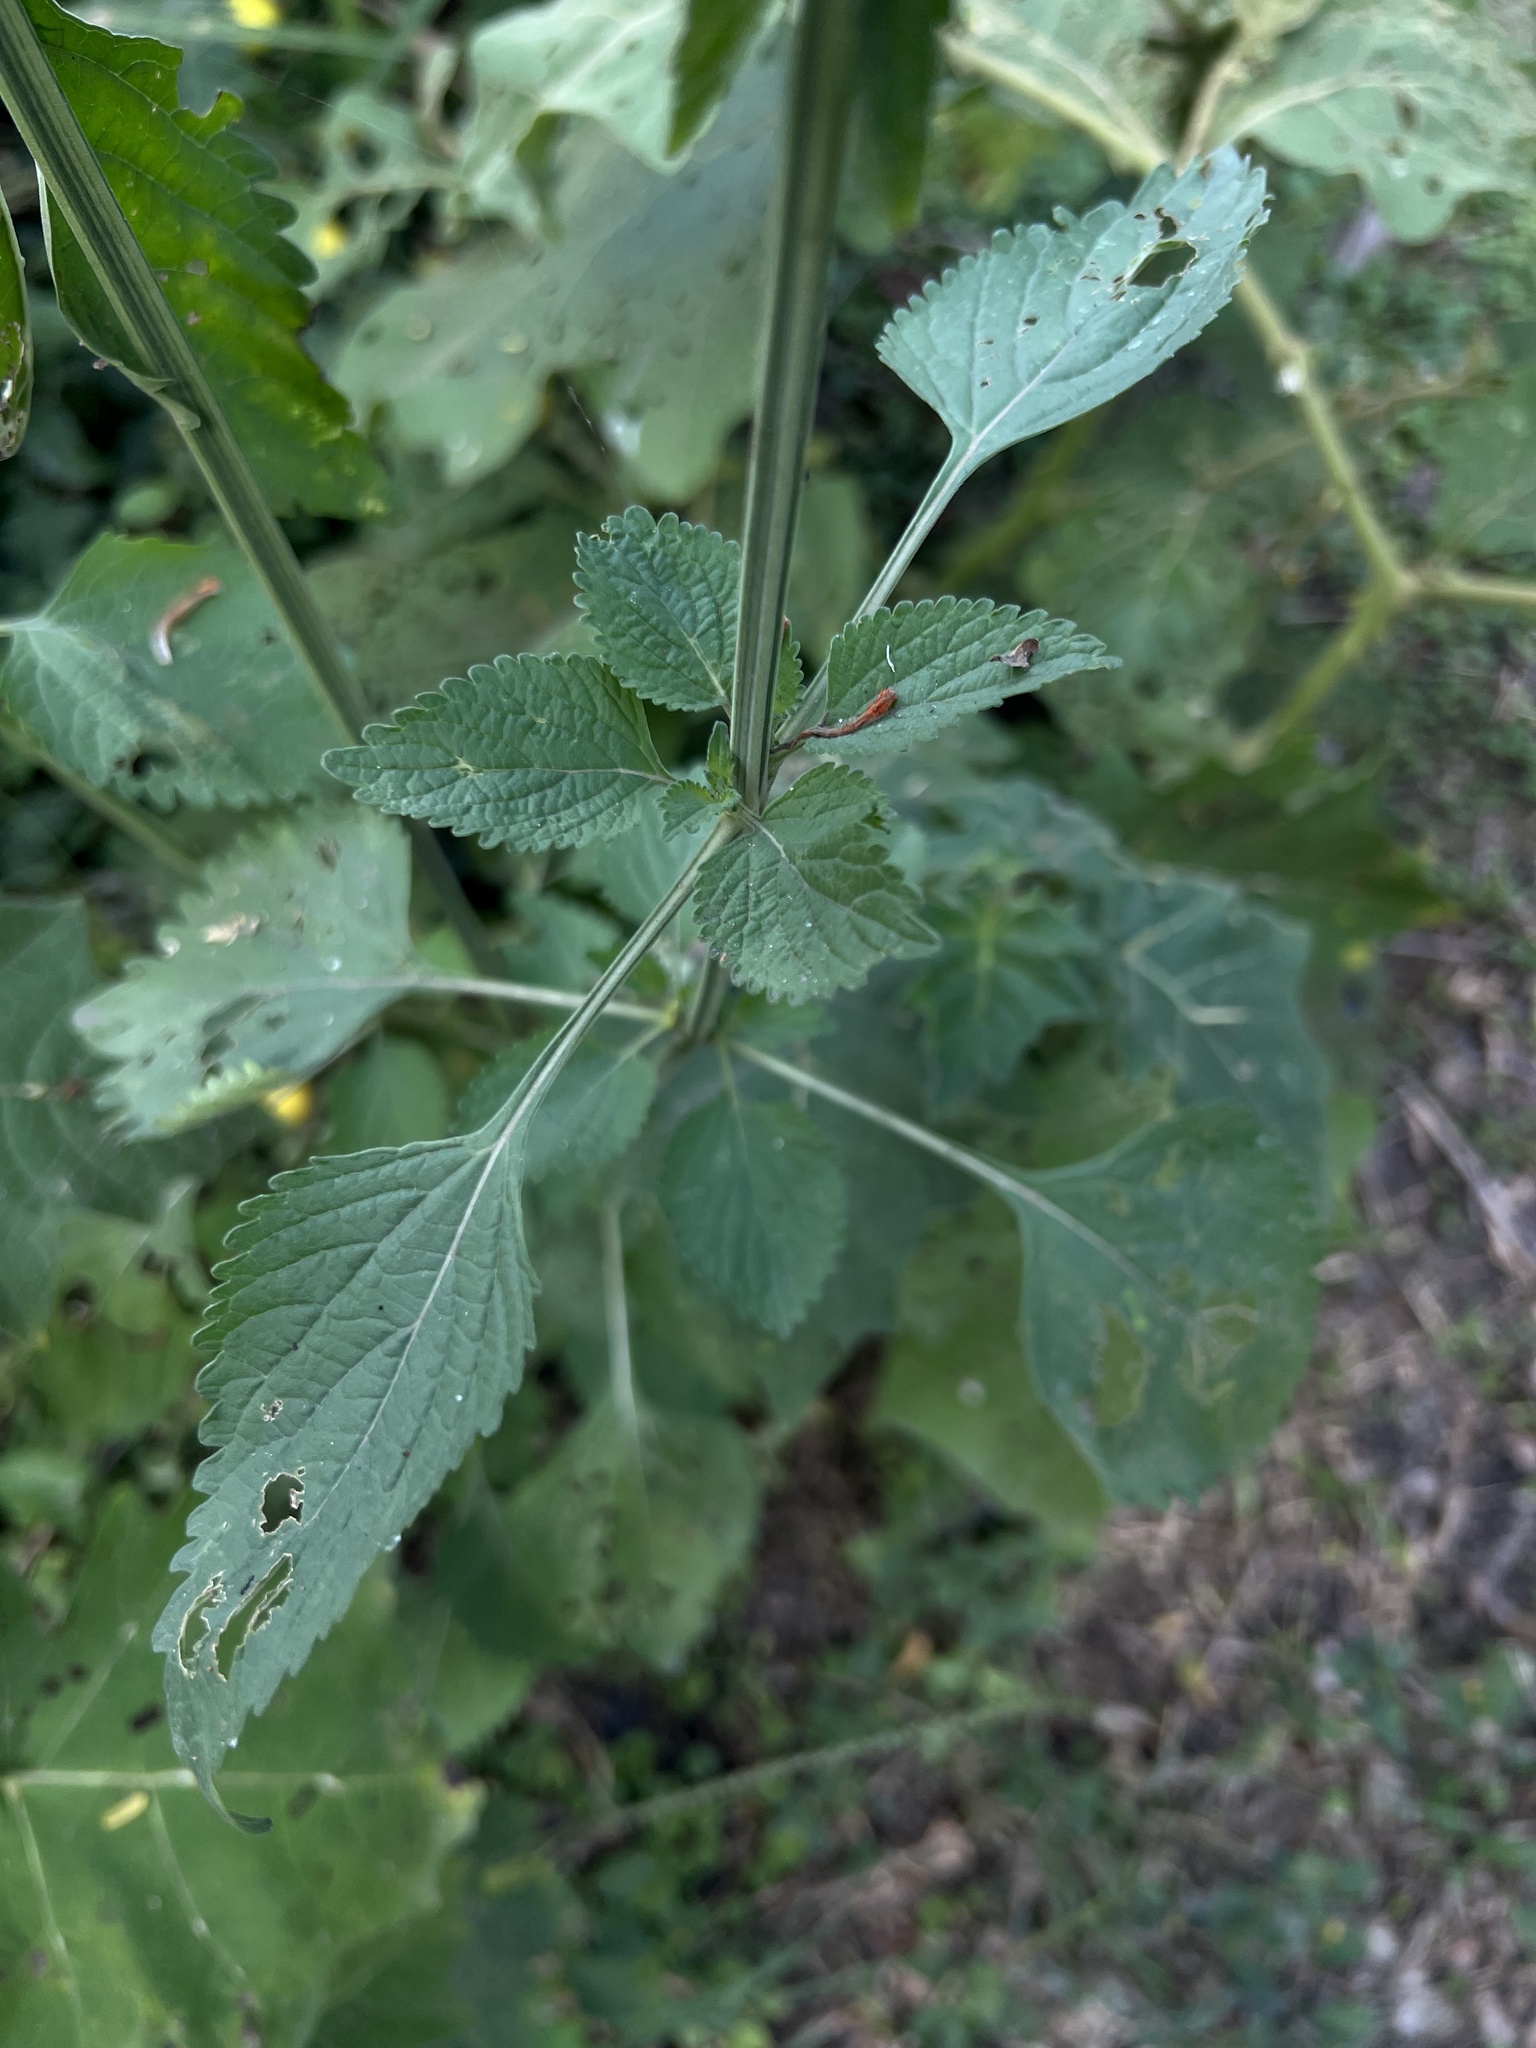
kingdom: Plantae
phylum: Tracheophyta
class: Magnoliopsida
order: Lamiales
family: Lamiaceae
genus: Leonotis
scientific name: Leonotis nepetifolia
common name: Christmas candlestick
